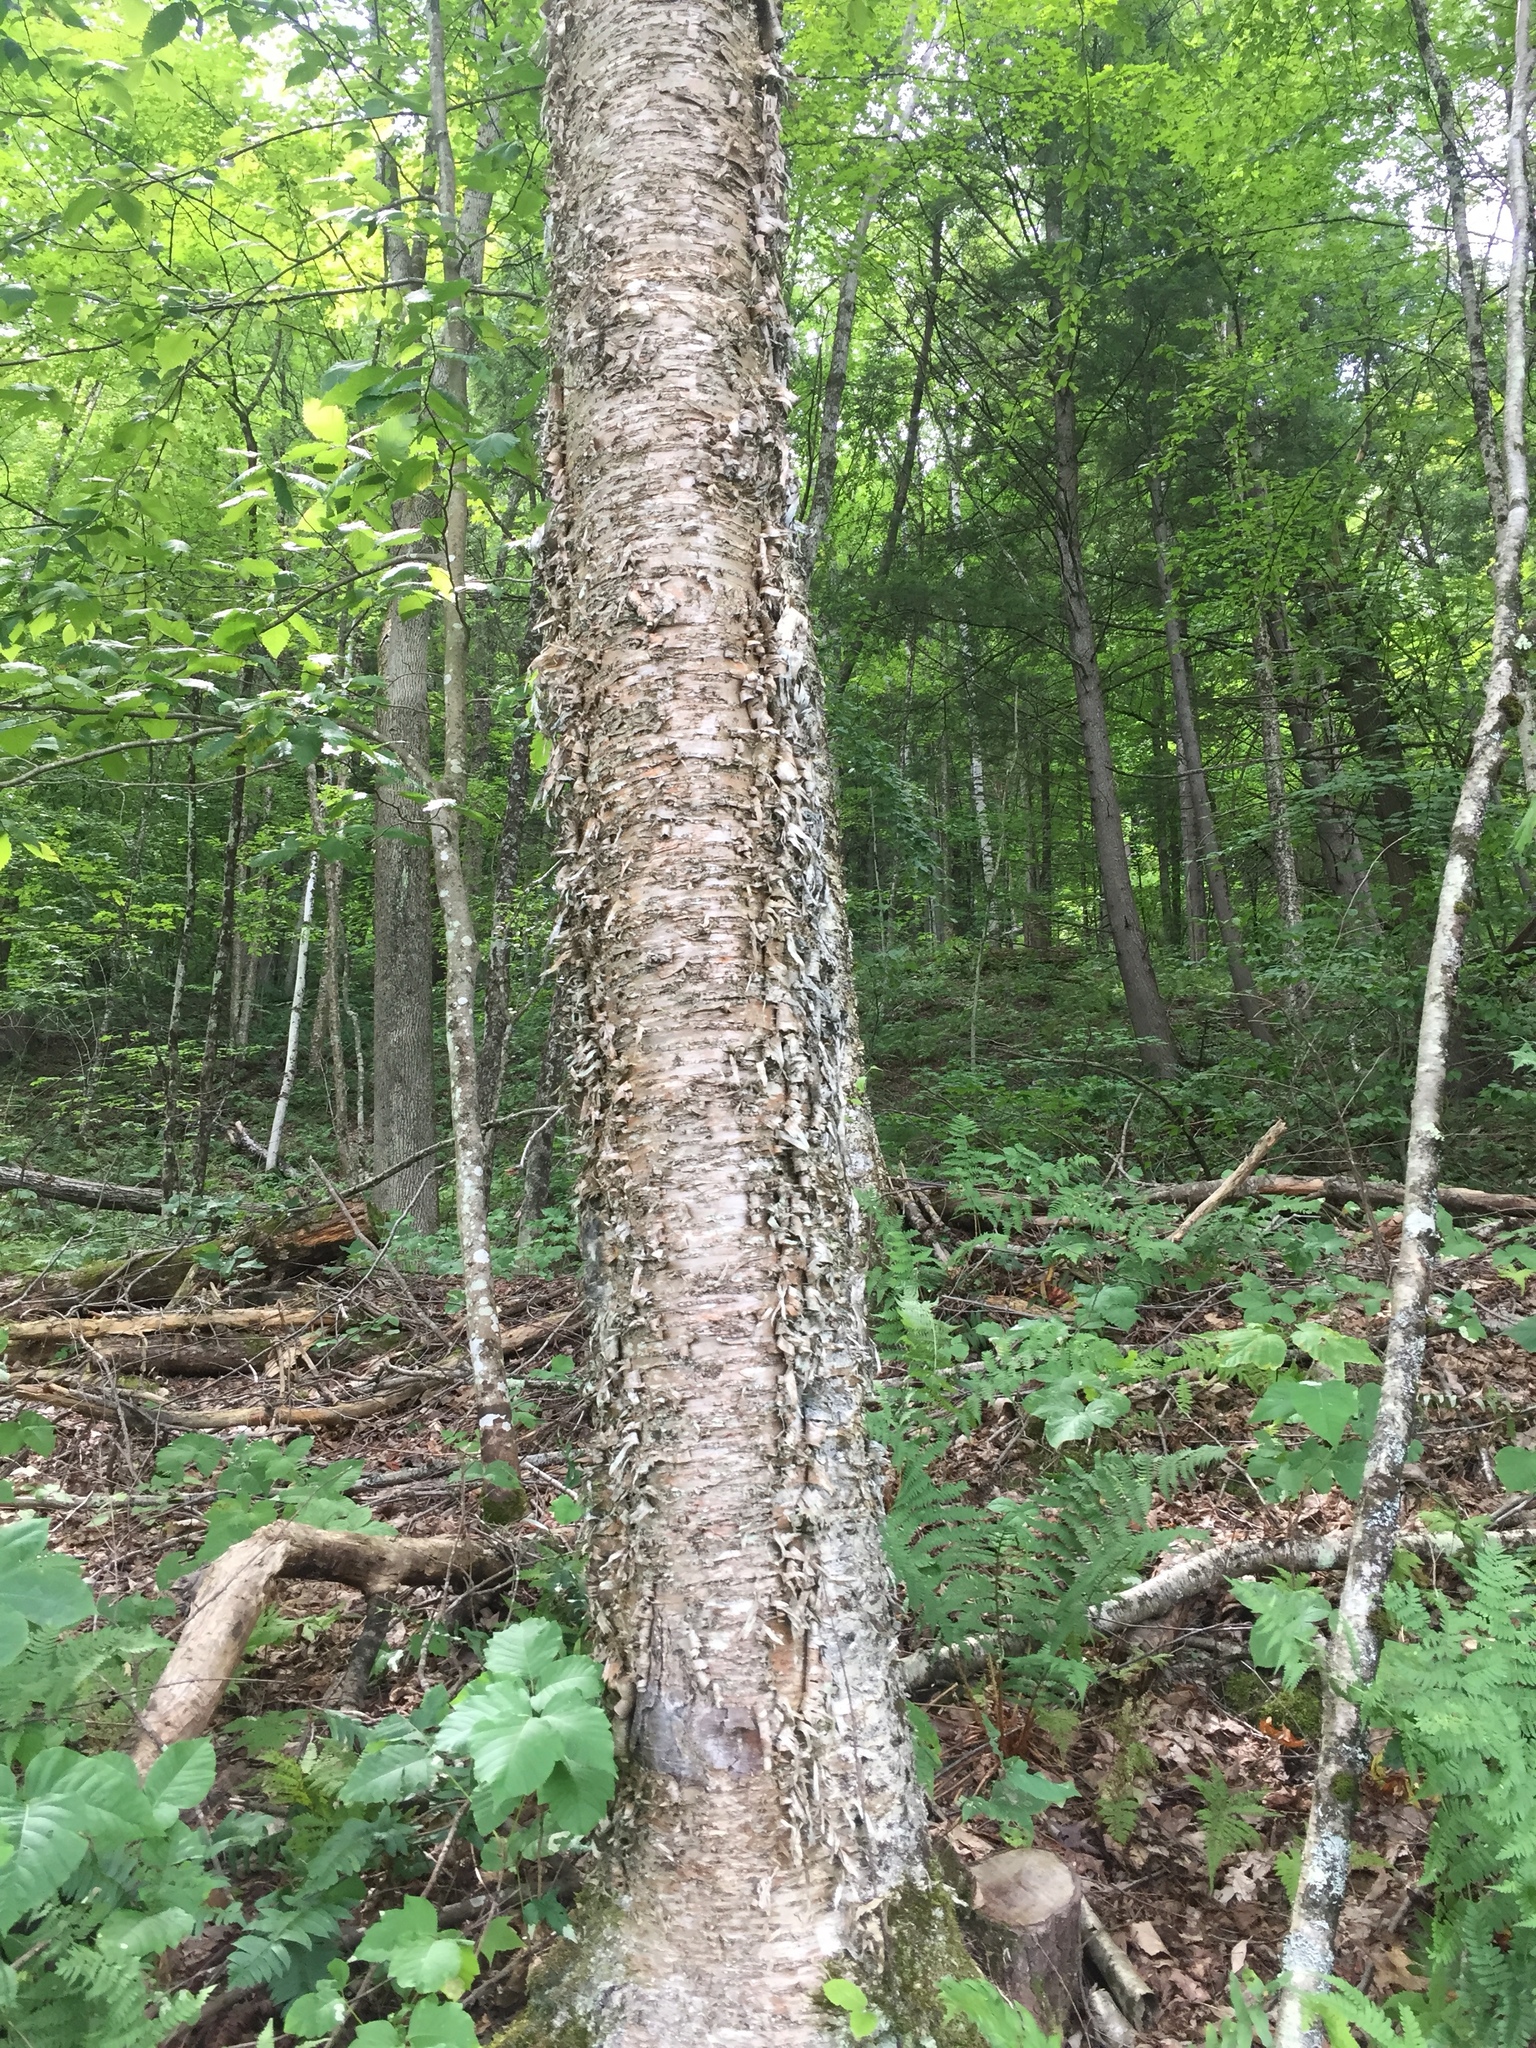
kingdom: Plantae
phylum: Tracheophyta
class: Magnoliopsida
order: Fagales
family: Betulaceae
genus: Betula
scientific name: Betula alleghaniensis
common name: Yellow birch
